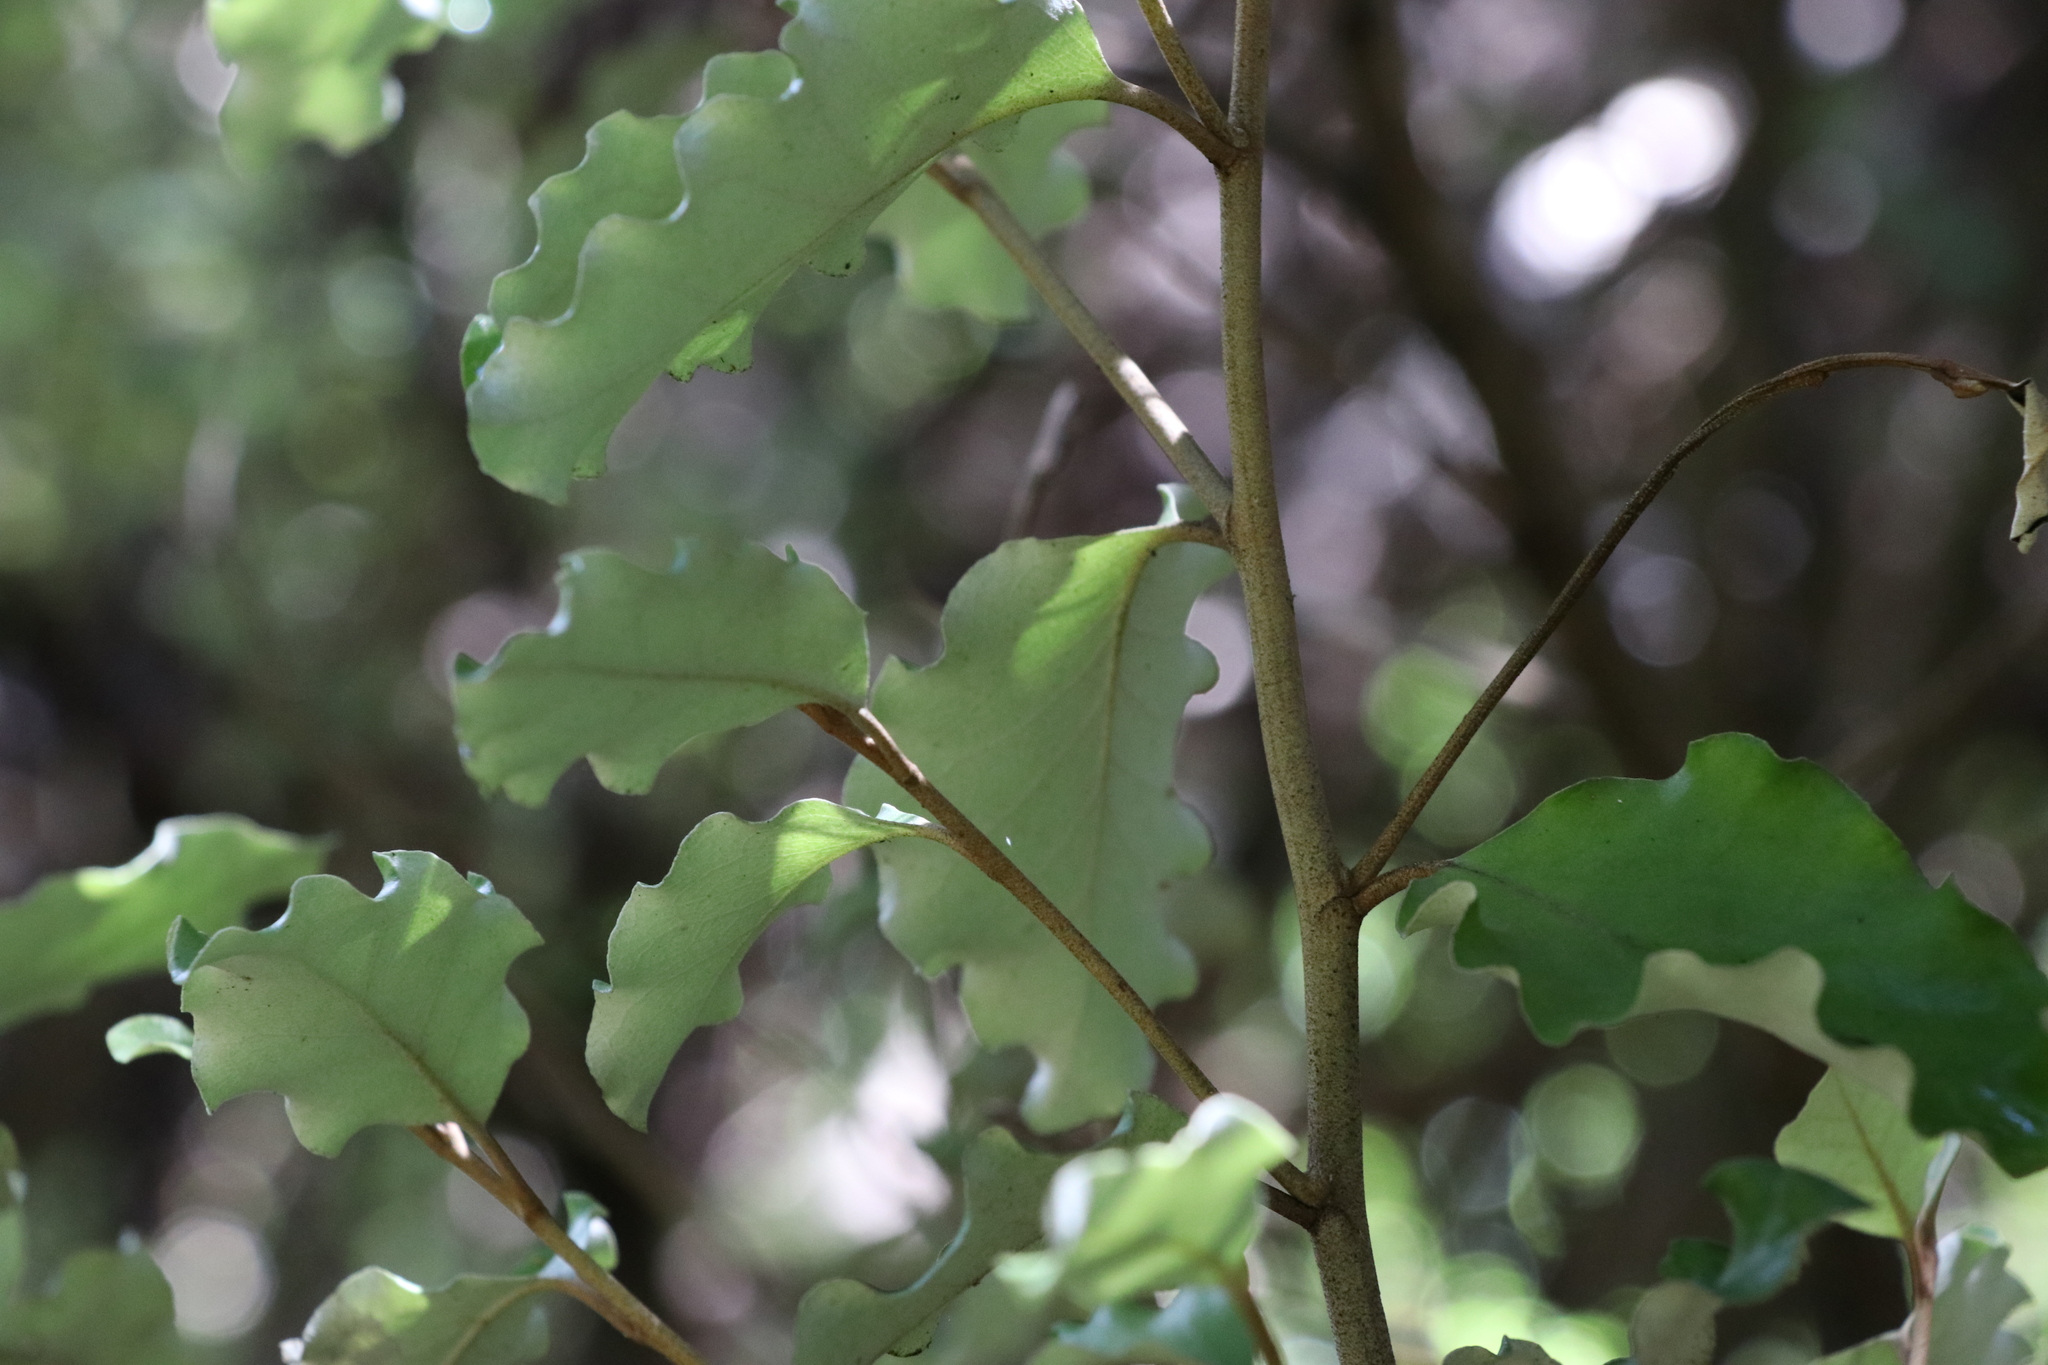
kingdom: Plantae
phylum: Tracheophyta
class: Magnoliopsida
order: Asterales
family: Asteraceae
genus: Olearia
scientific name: Olearia paniculata
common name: Akiraho
